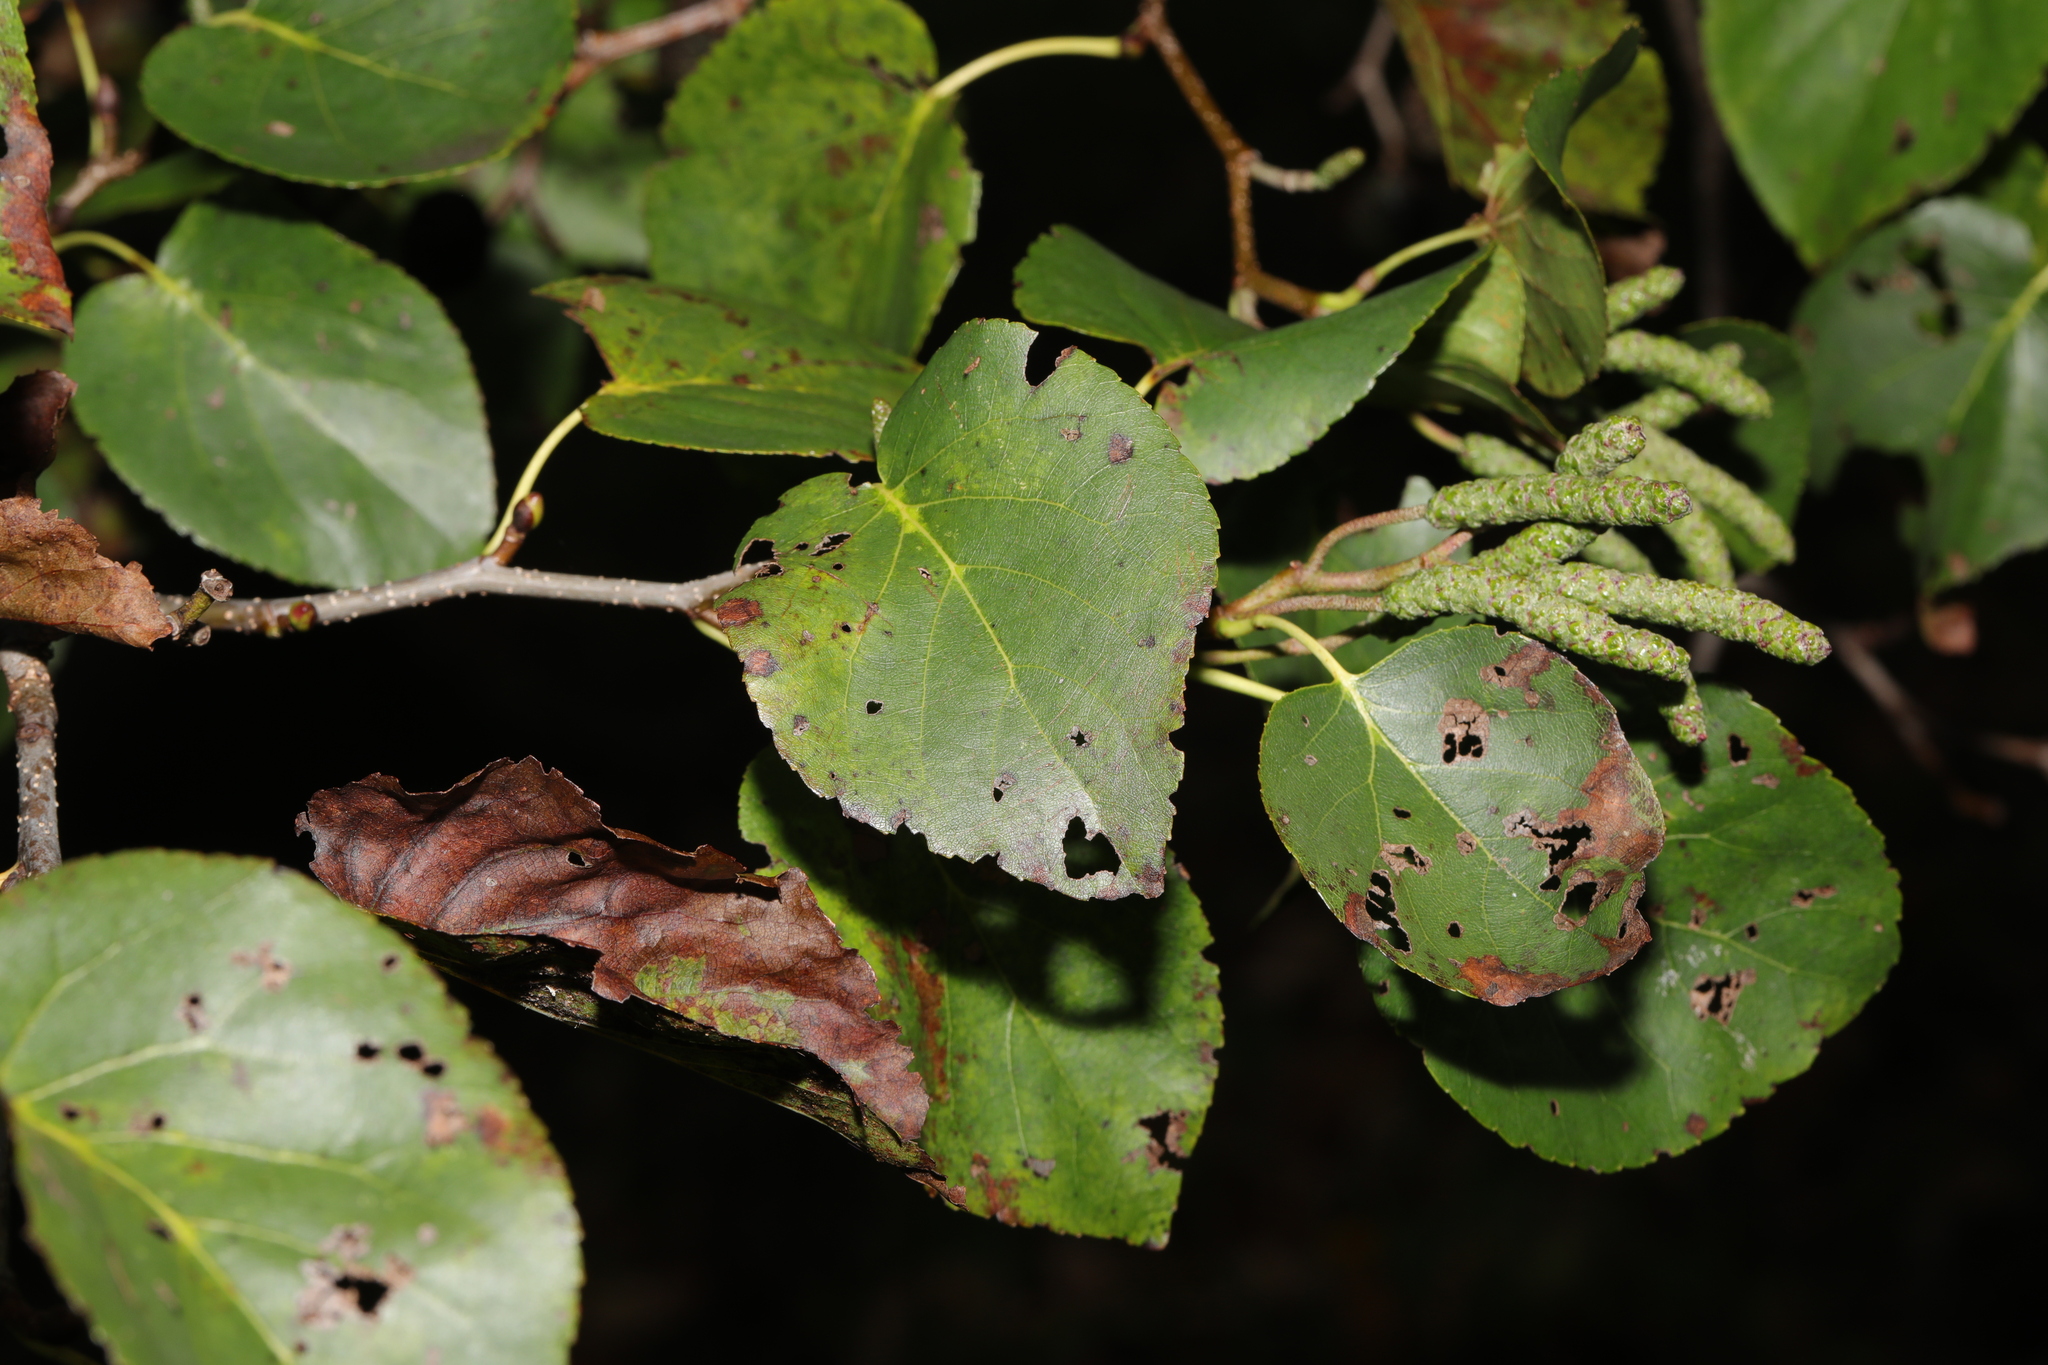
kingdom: Plantae
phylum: Tracheophyta
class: Magnoliopsida
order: Fagales
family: Betulaceae
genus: Alnus
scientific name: Alnus cordata
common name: Italian alder
